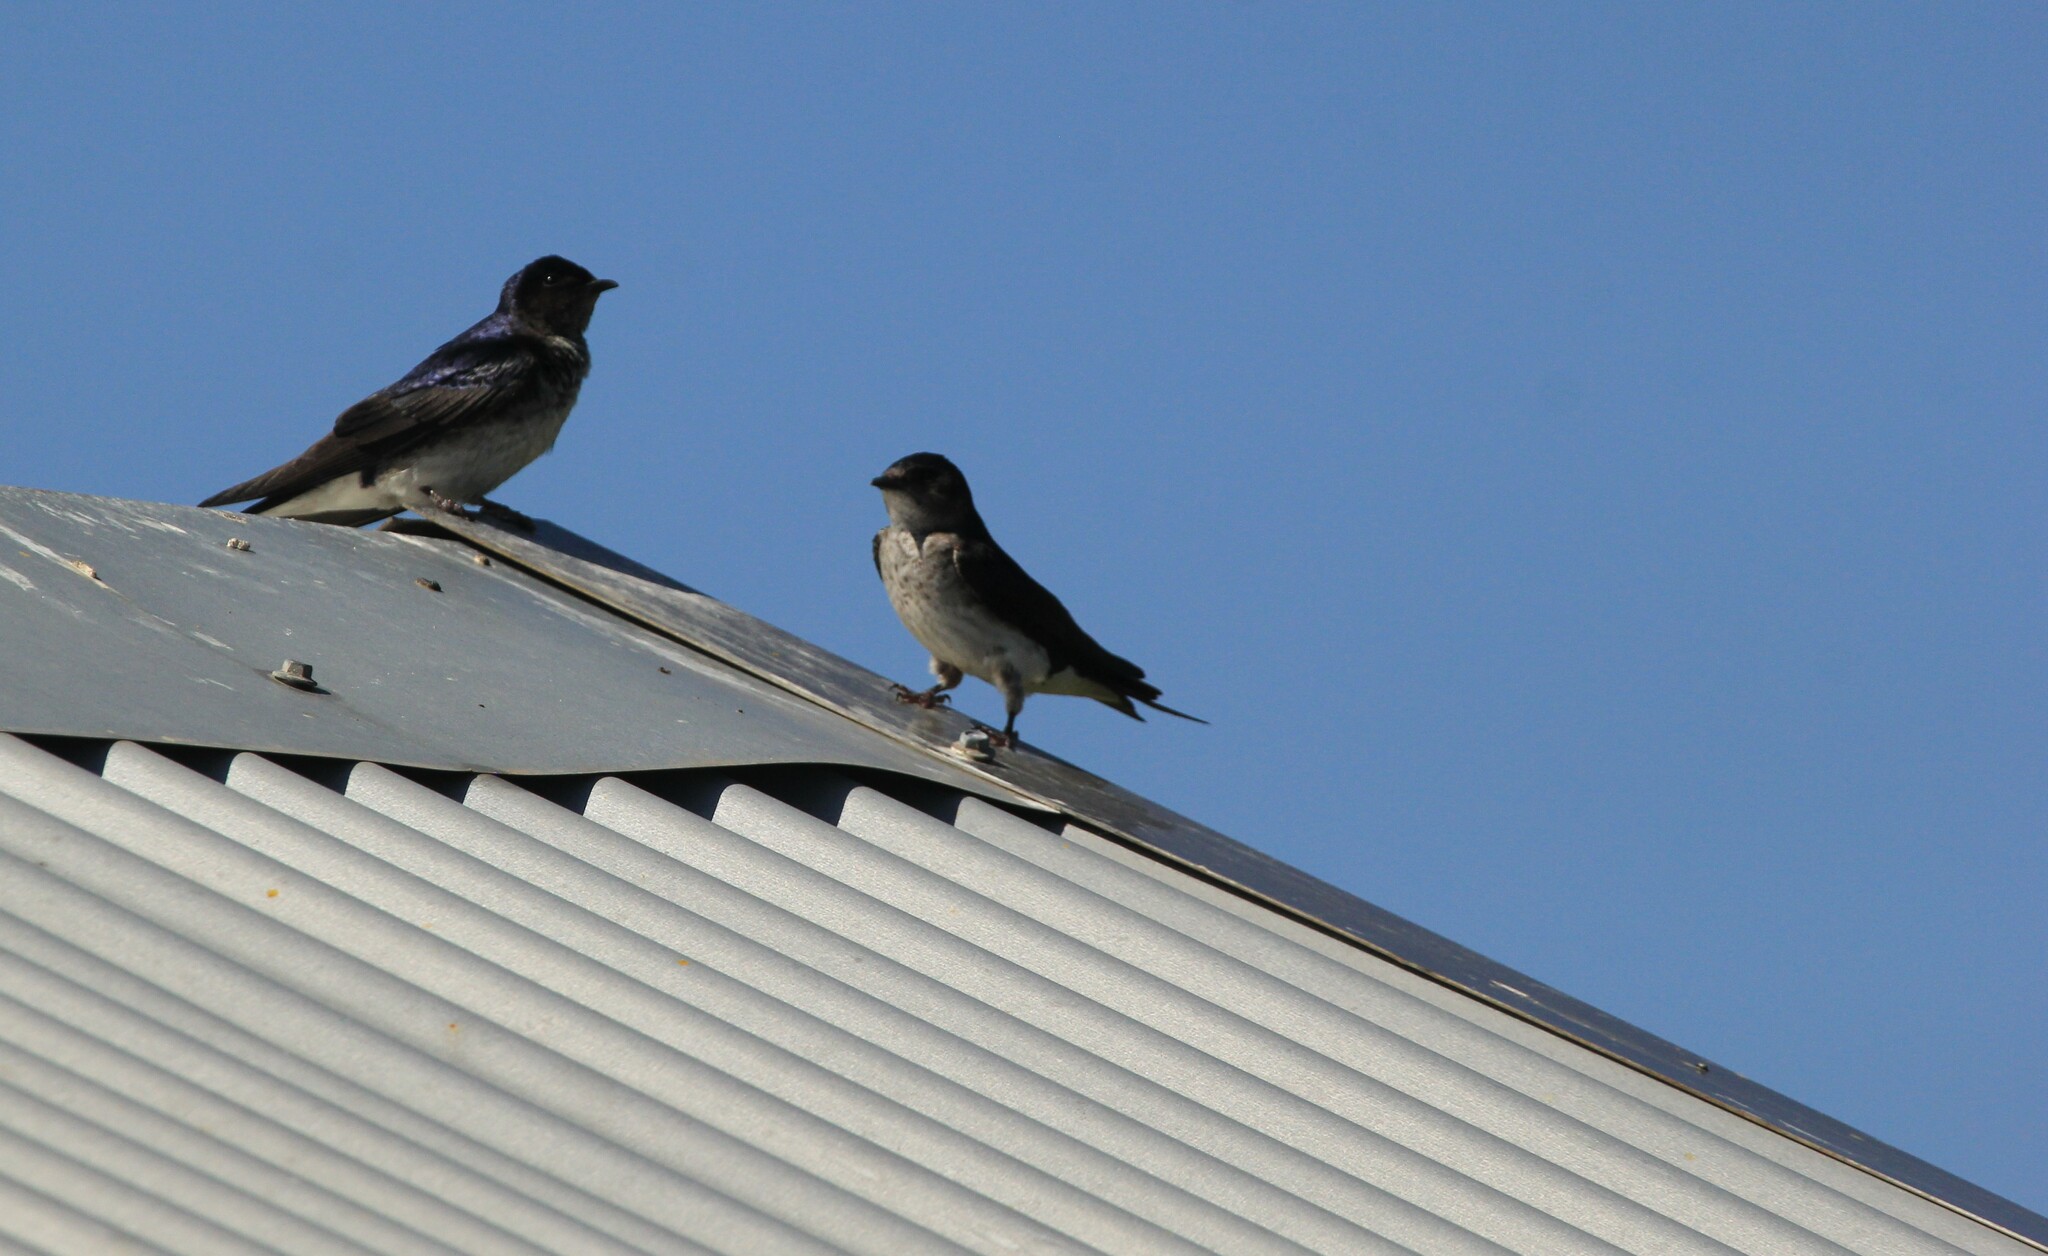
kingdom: Animalia
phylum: Chordata
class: Aves
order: Passeriformes
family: Hirundinidae
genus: Progne
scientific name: Progne chalybea
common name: Grey-breasted martin
